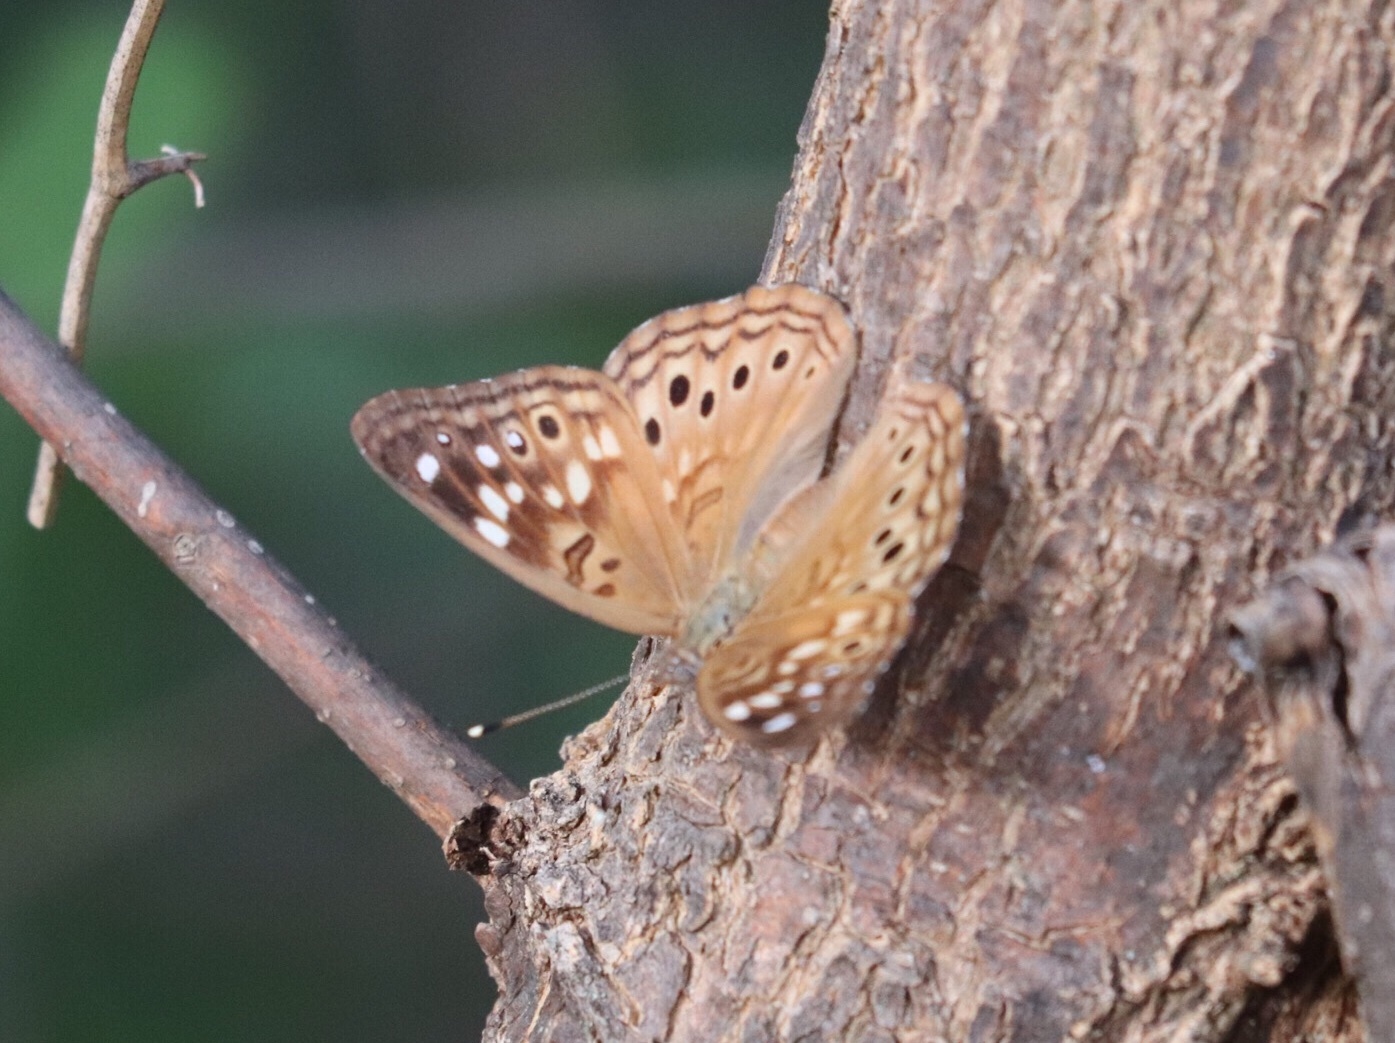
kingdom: Animalia
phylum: Arthropoda
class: Insecta
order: Lepidoptera
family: Nymphalidae
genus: Asterocampa
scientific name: Asterocampa celtis
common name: Hackberry emperor
